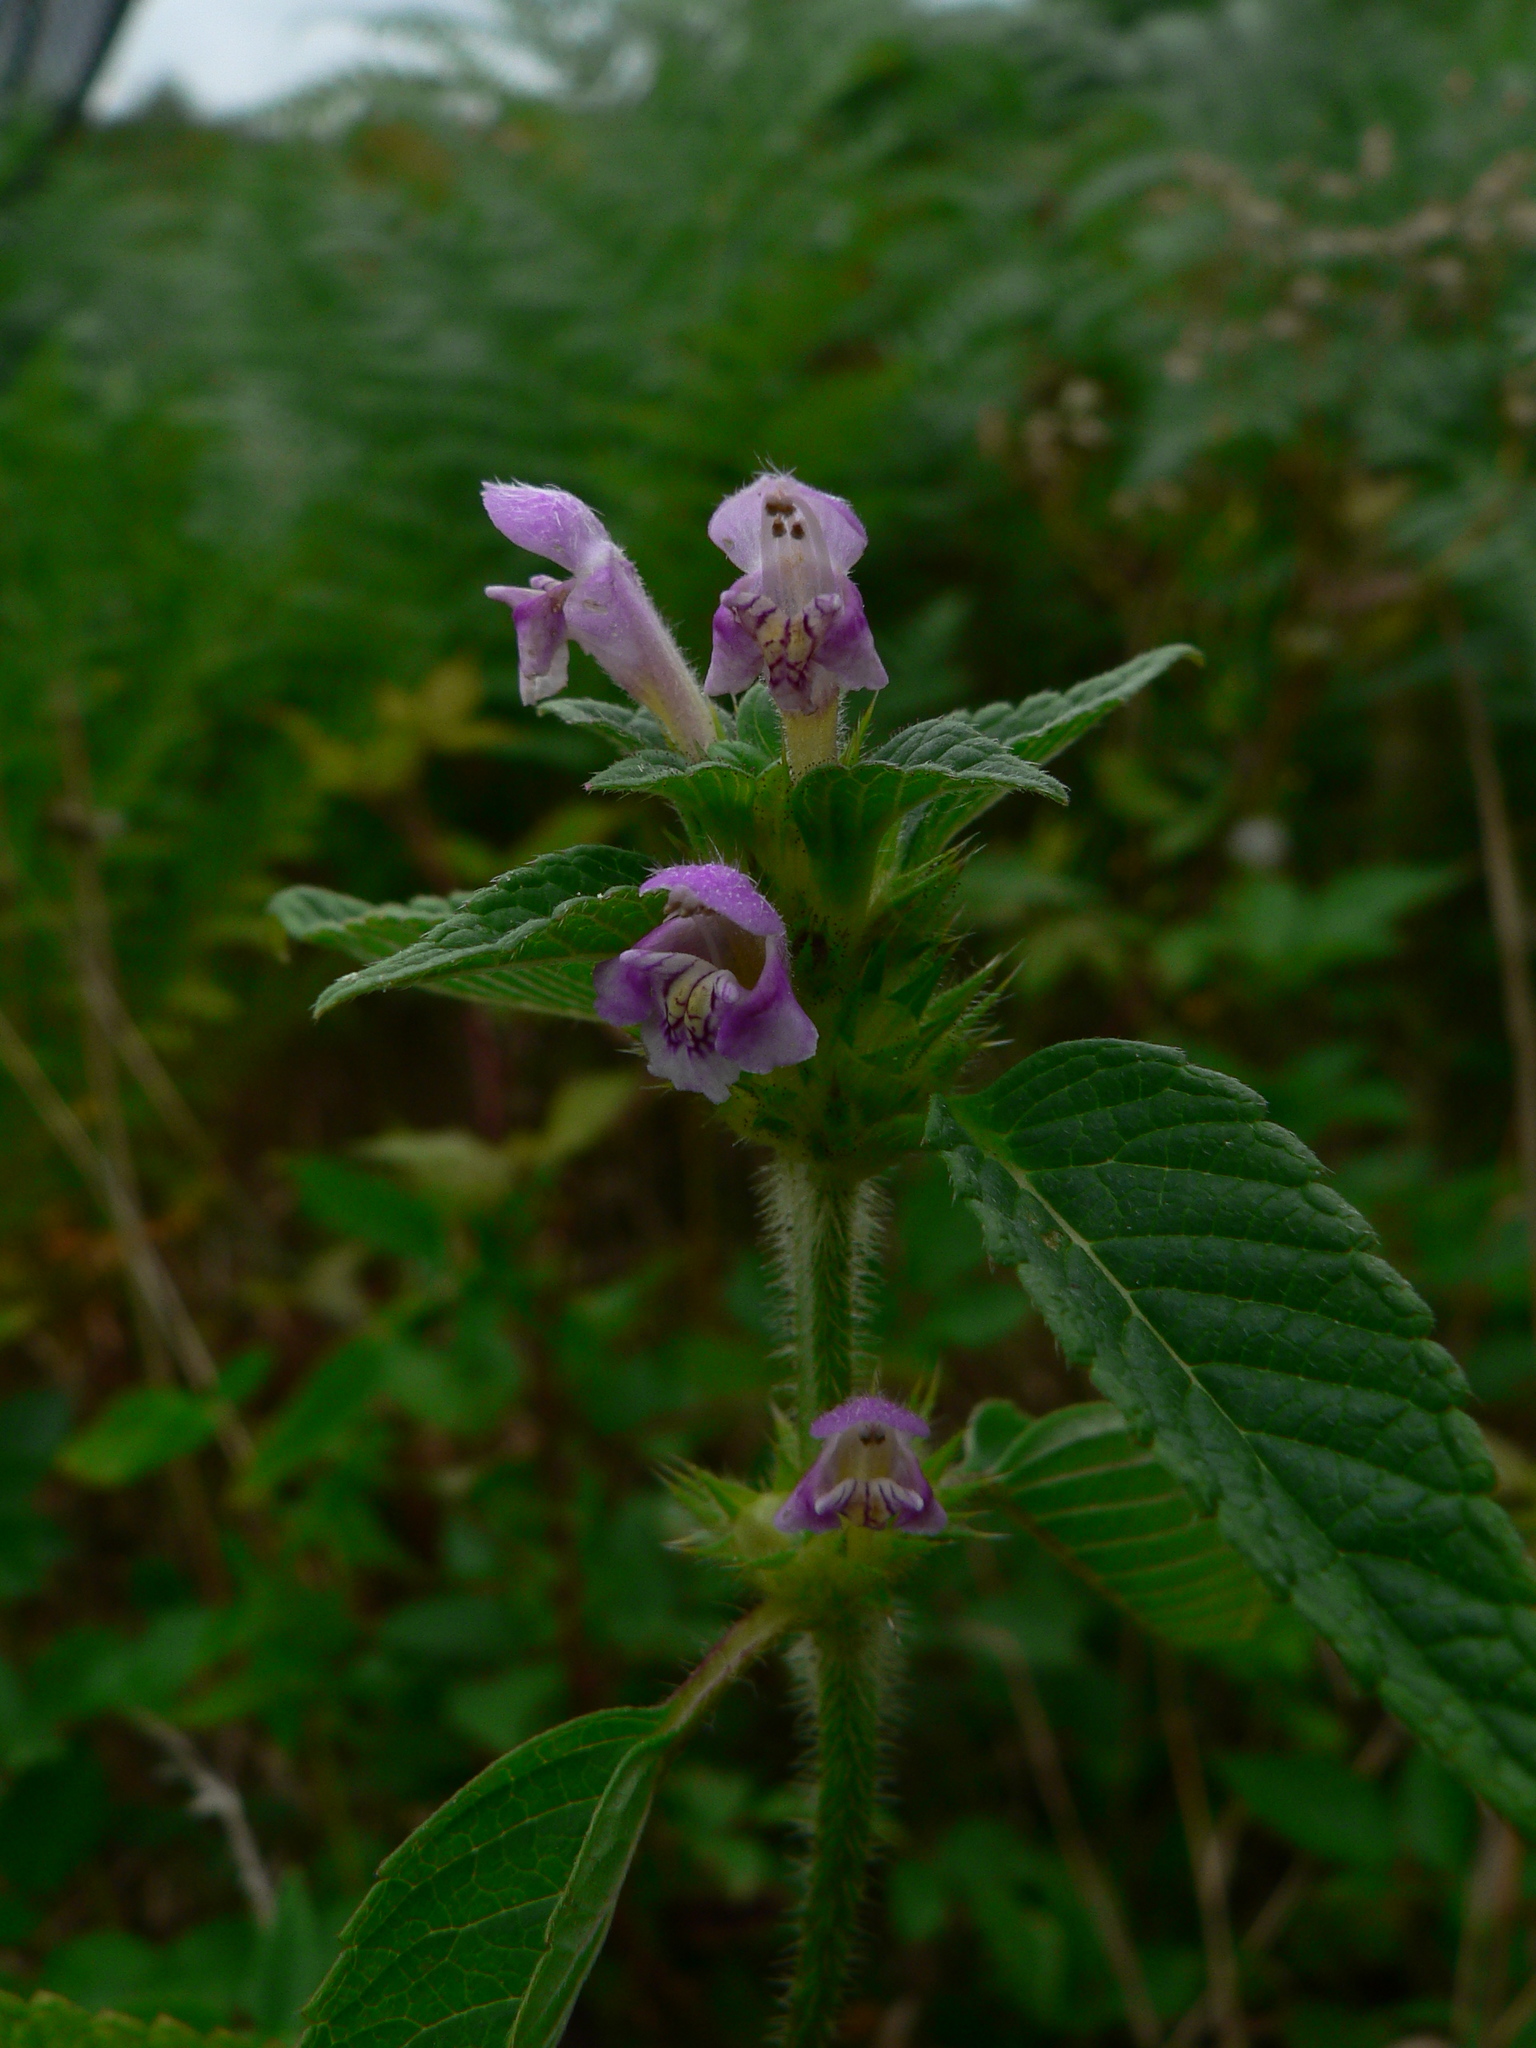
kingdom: Plantae
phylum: Tracheophyta
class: Magnoliopsida
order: Lamiales
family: Lamiaceae
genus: Galeopsis
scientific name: Galeopsis tetrahit
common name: Common hemp-nettle
